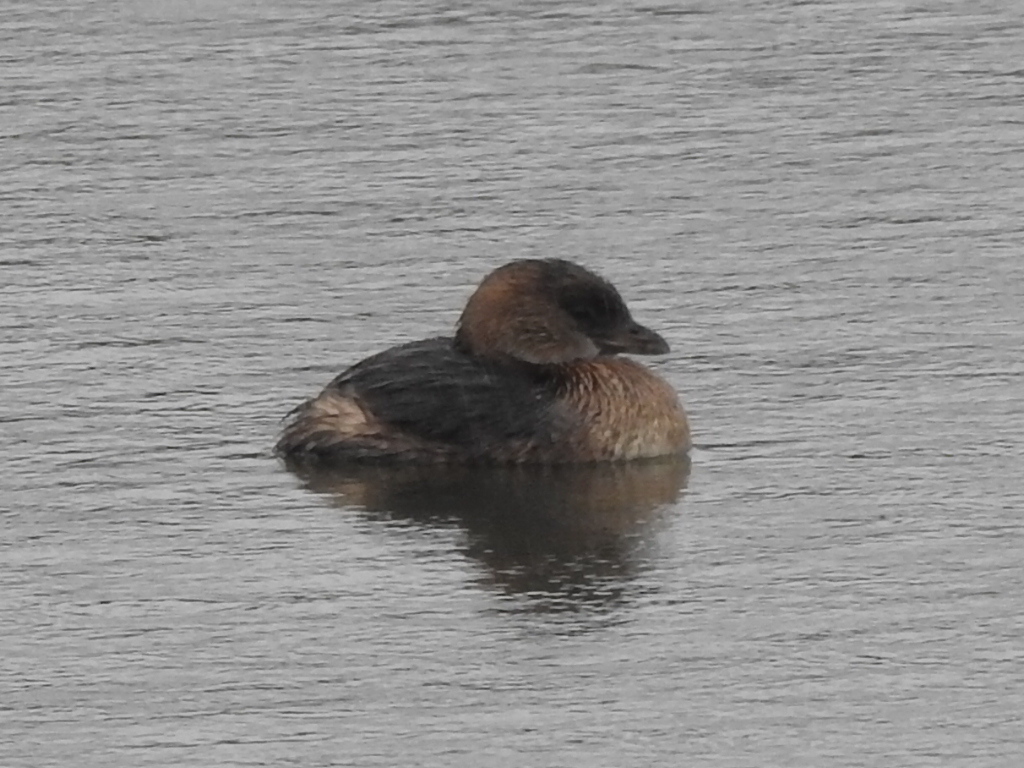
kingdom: Animalia
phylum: Chordata
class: Aves
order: Podicipediformes
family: Podicipedidae
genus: Podilymbus
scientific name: Podilymbus podiceps
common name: Pied-billed grebe
